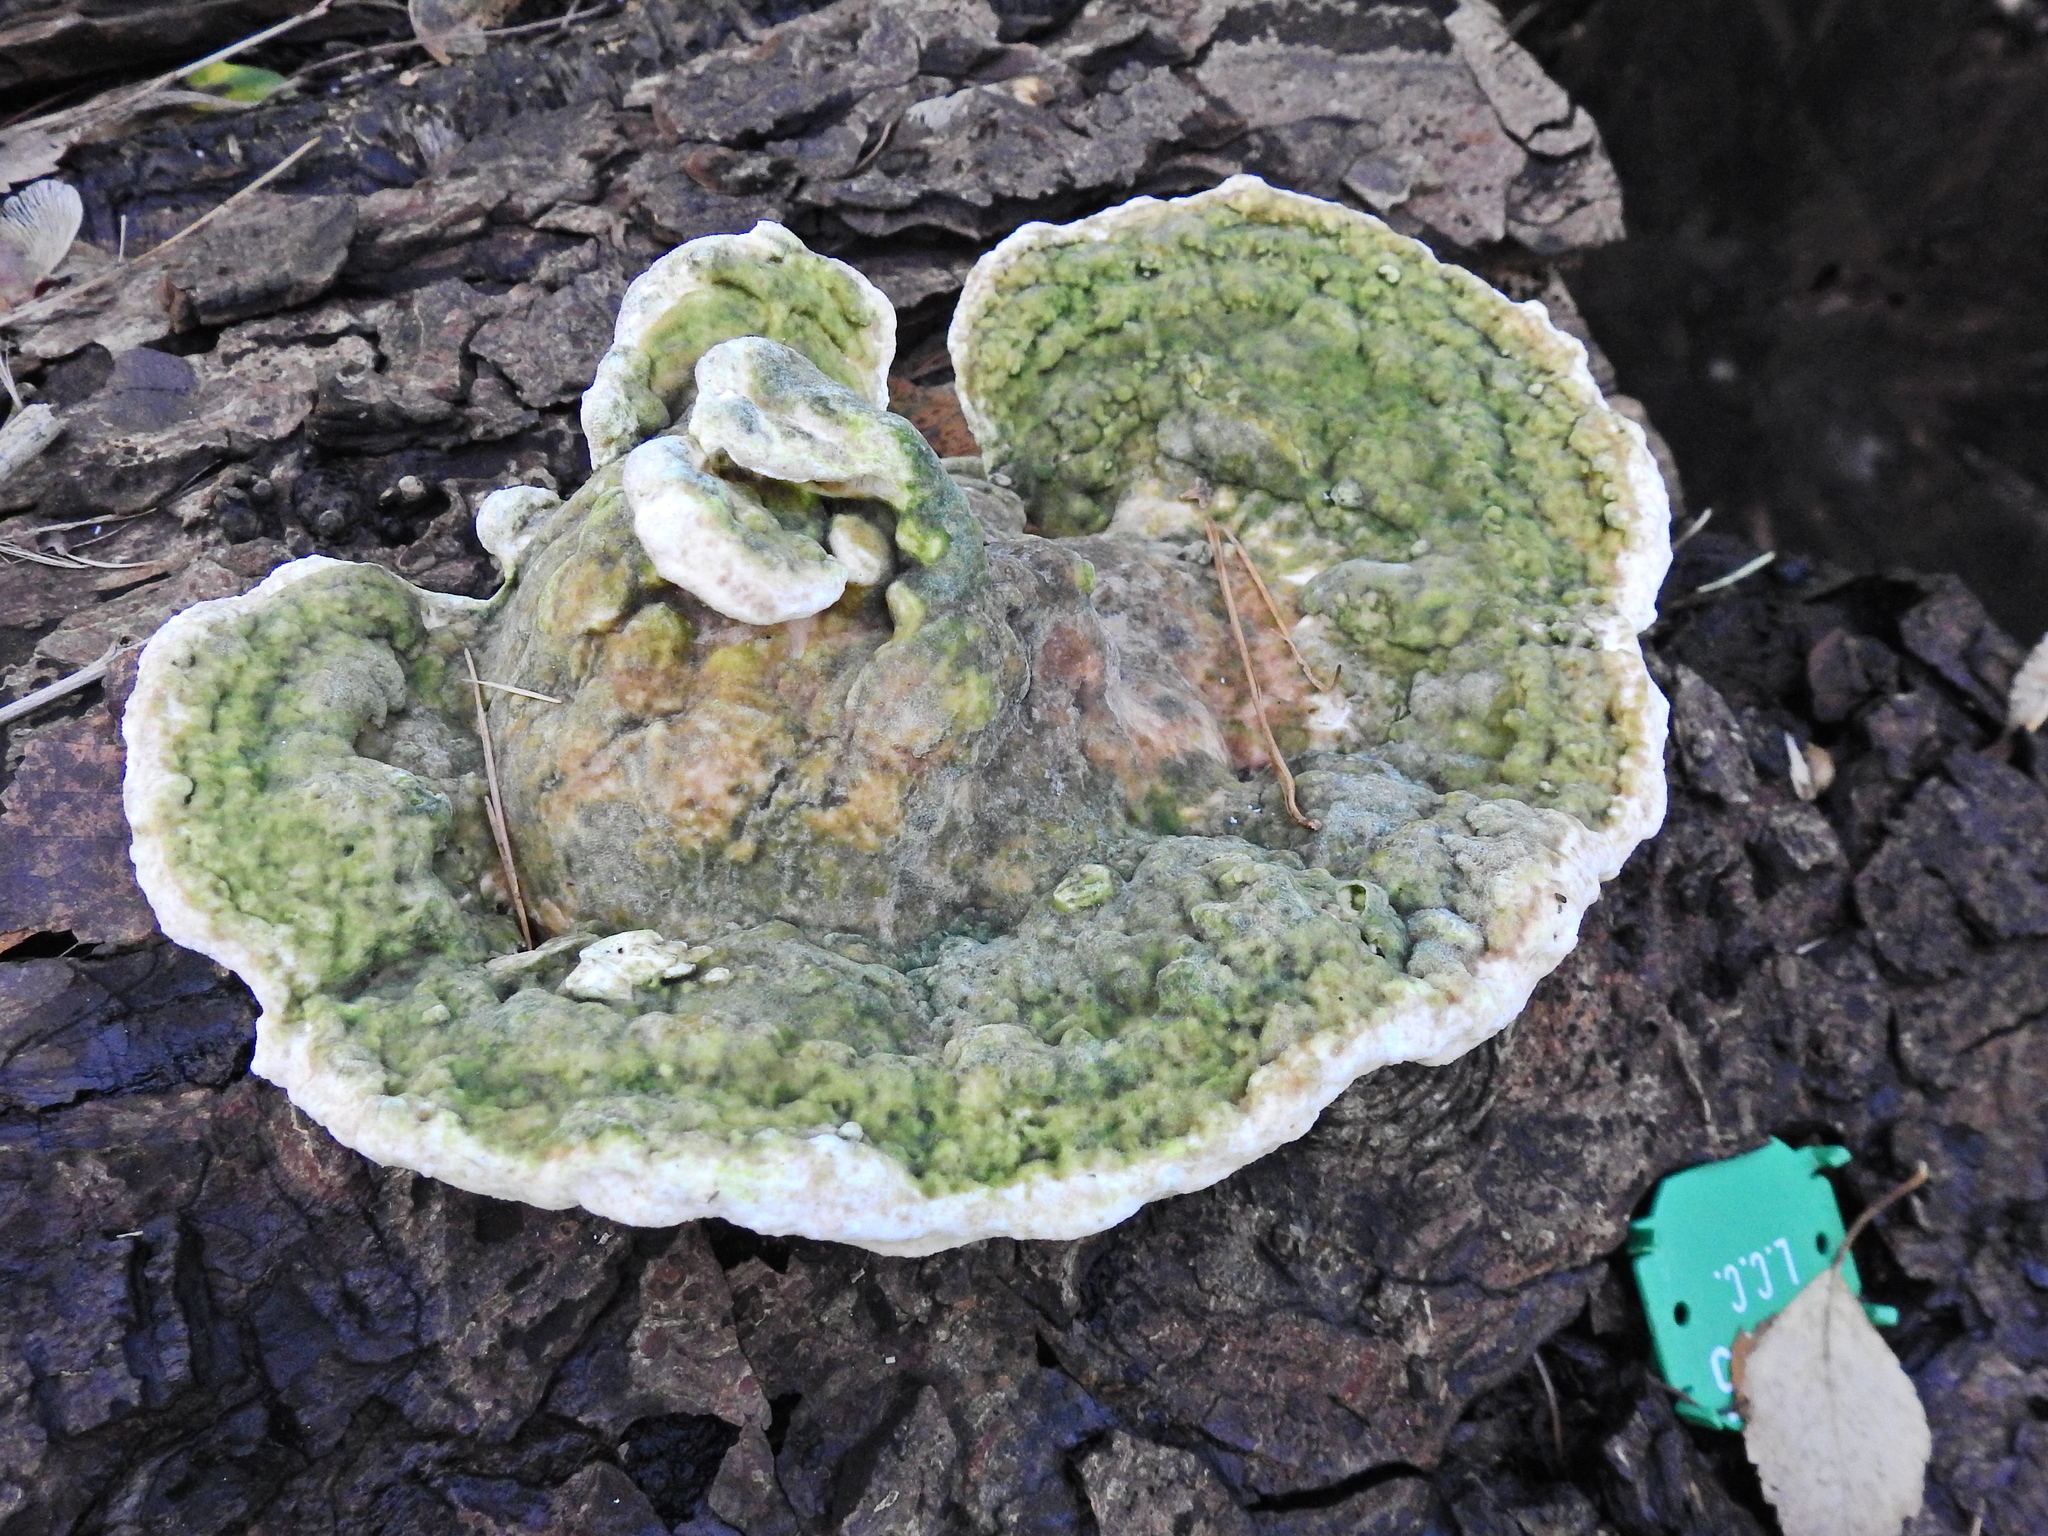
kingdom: Fungi
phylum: Basidiomycota
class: Agaricomycetes
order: Polyporales
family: Polyporaceae
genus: Trametes
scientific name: Trametes gibbosa
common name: Lumpy bracket
